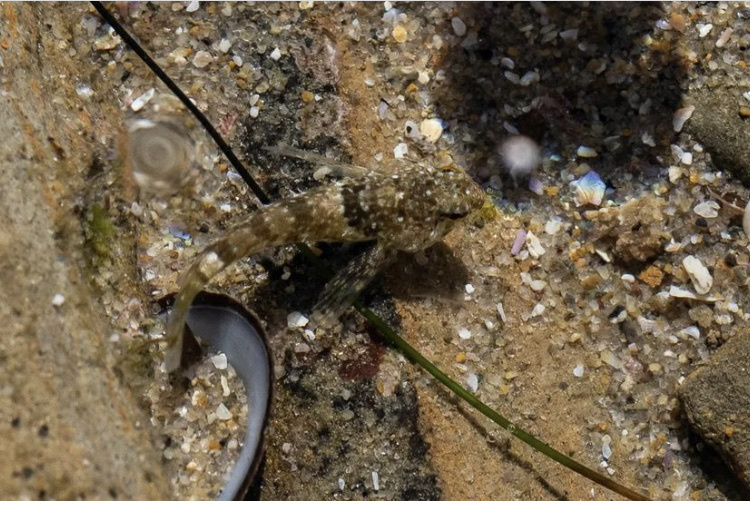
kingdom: Animalia
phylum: Chordata
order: Scorpaeniformes
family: Cottidae
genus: Clinocottus
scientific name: Clinocottus analis
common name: Woolly sculpin
